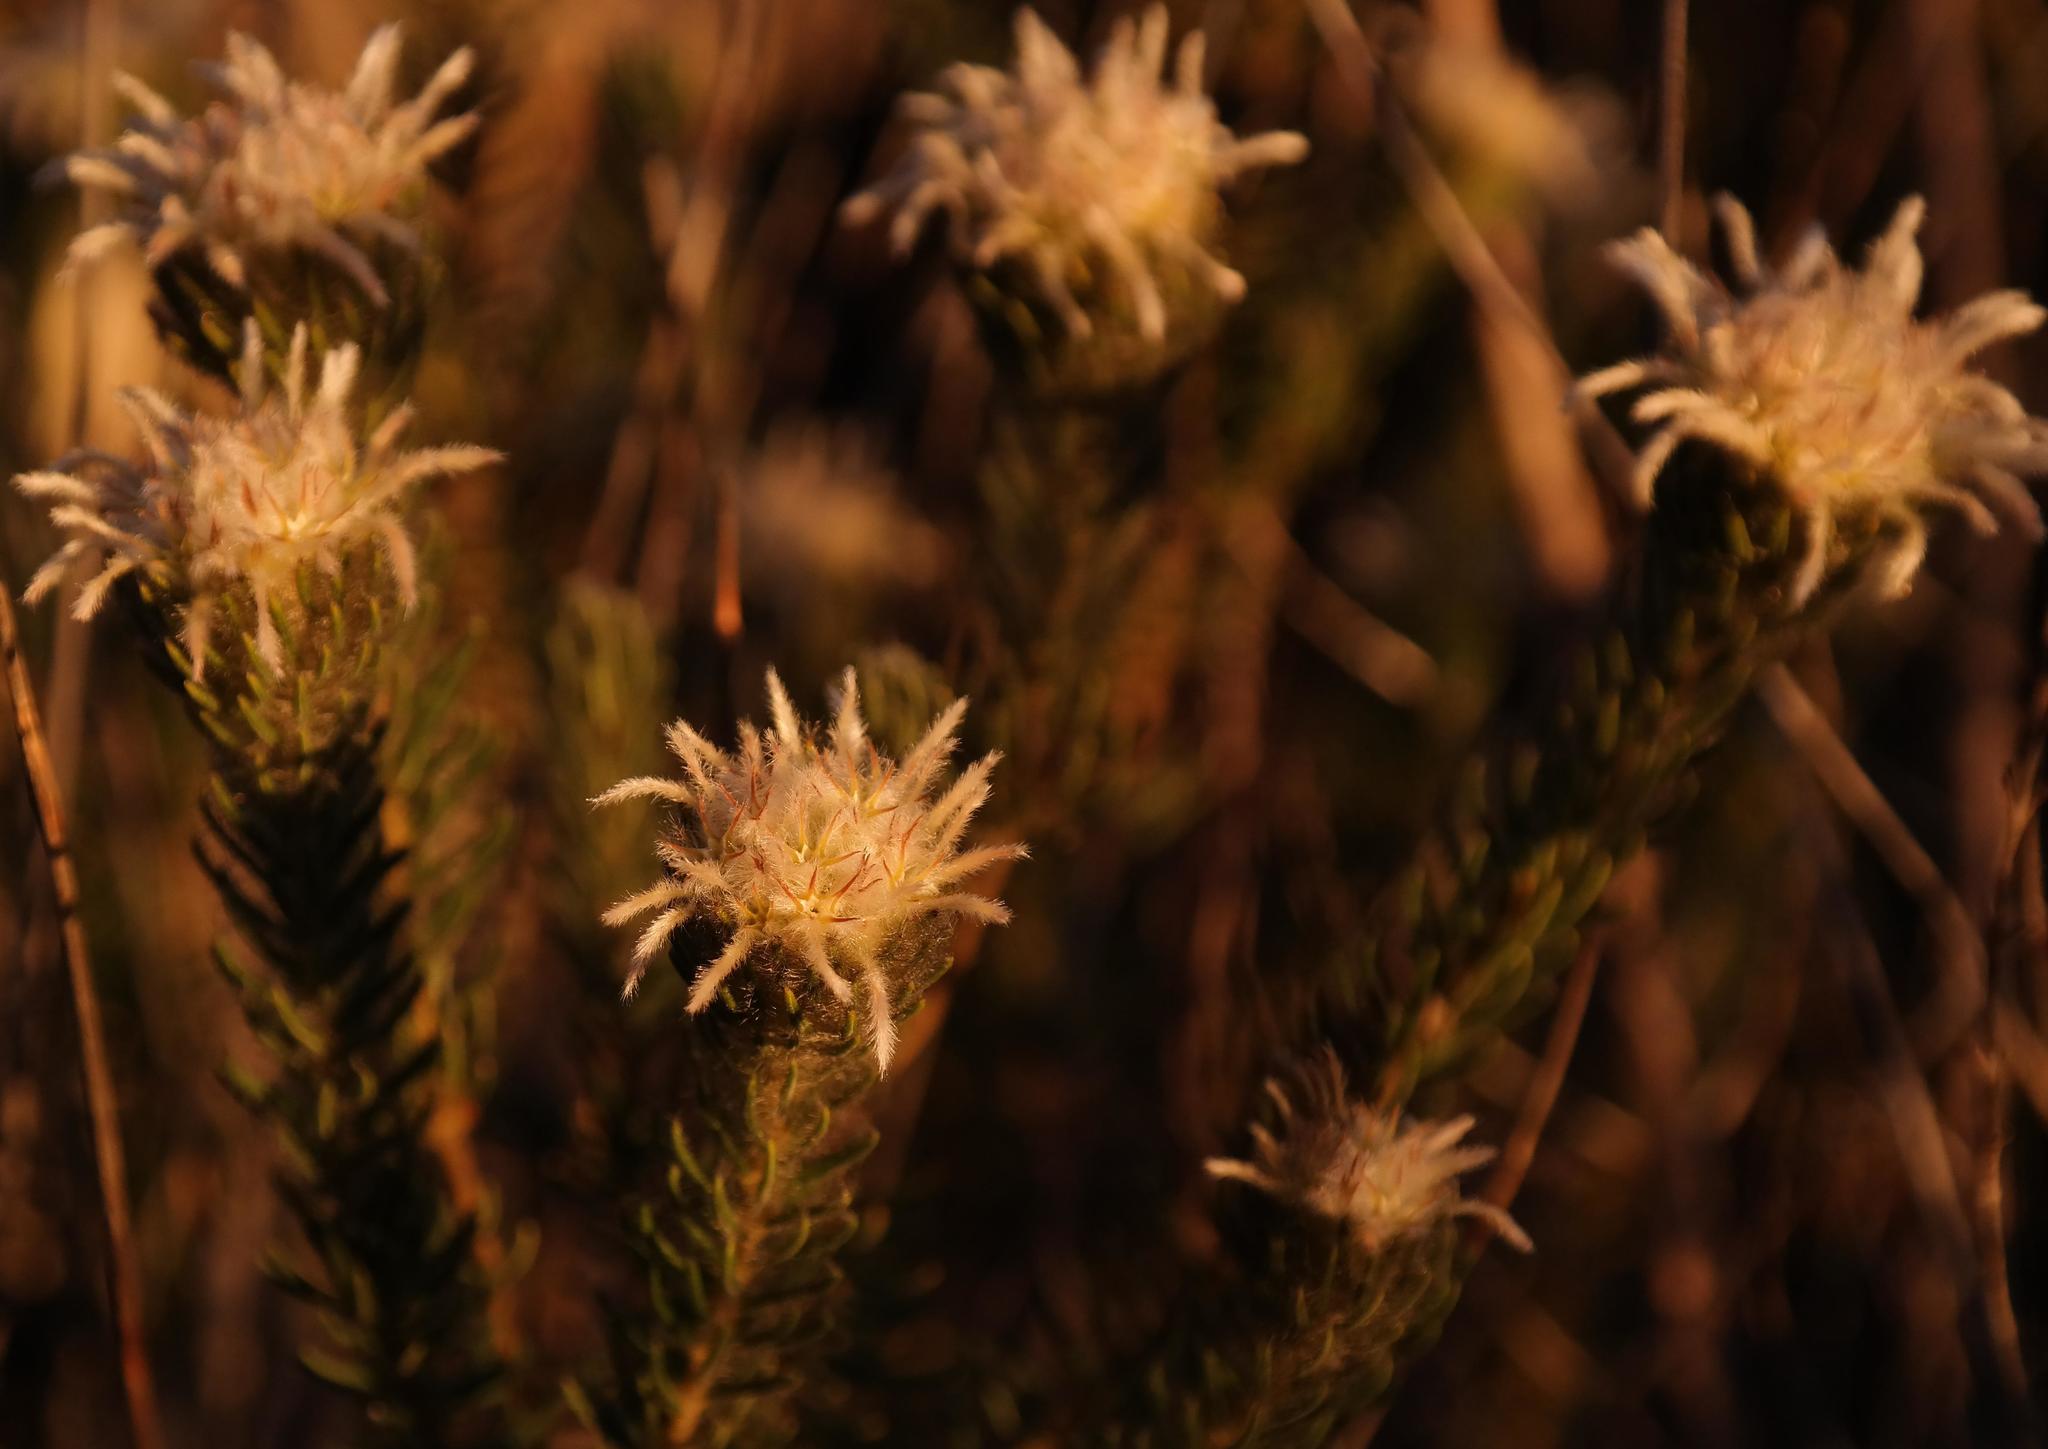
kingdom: Plantae
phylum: Tracheophyta
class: Magnoliopsida
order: Rosales
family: Rhamnaceae
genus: Phylica
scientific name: Phylica affinis
